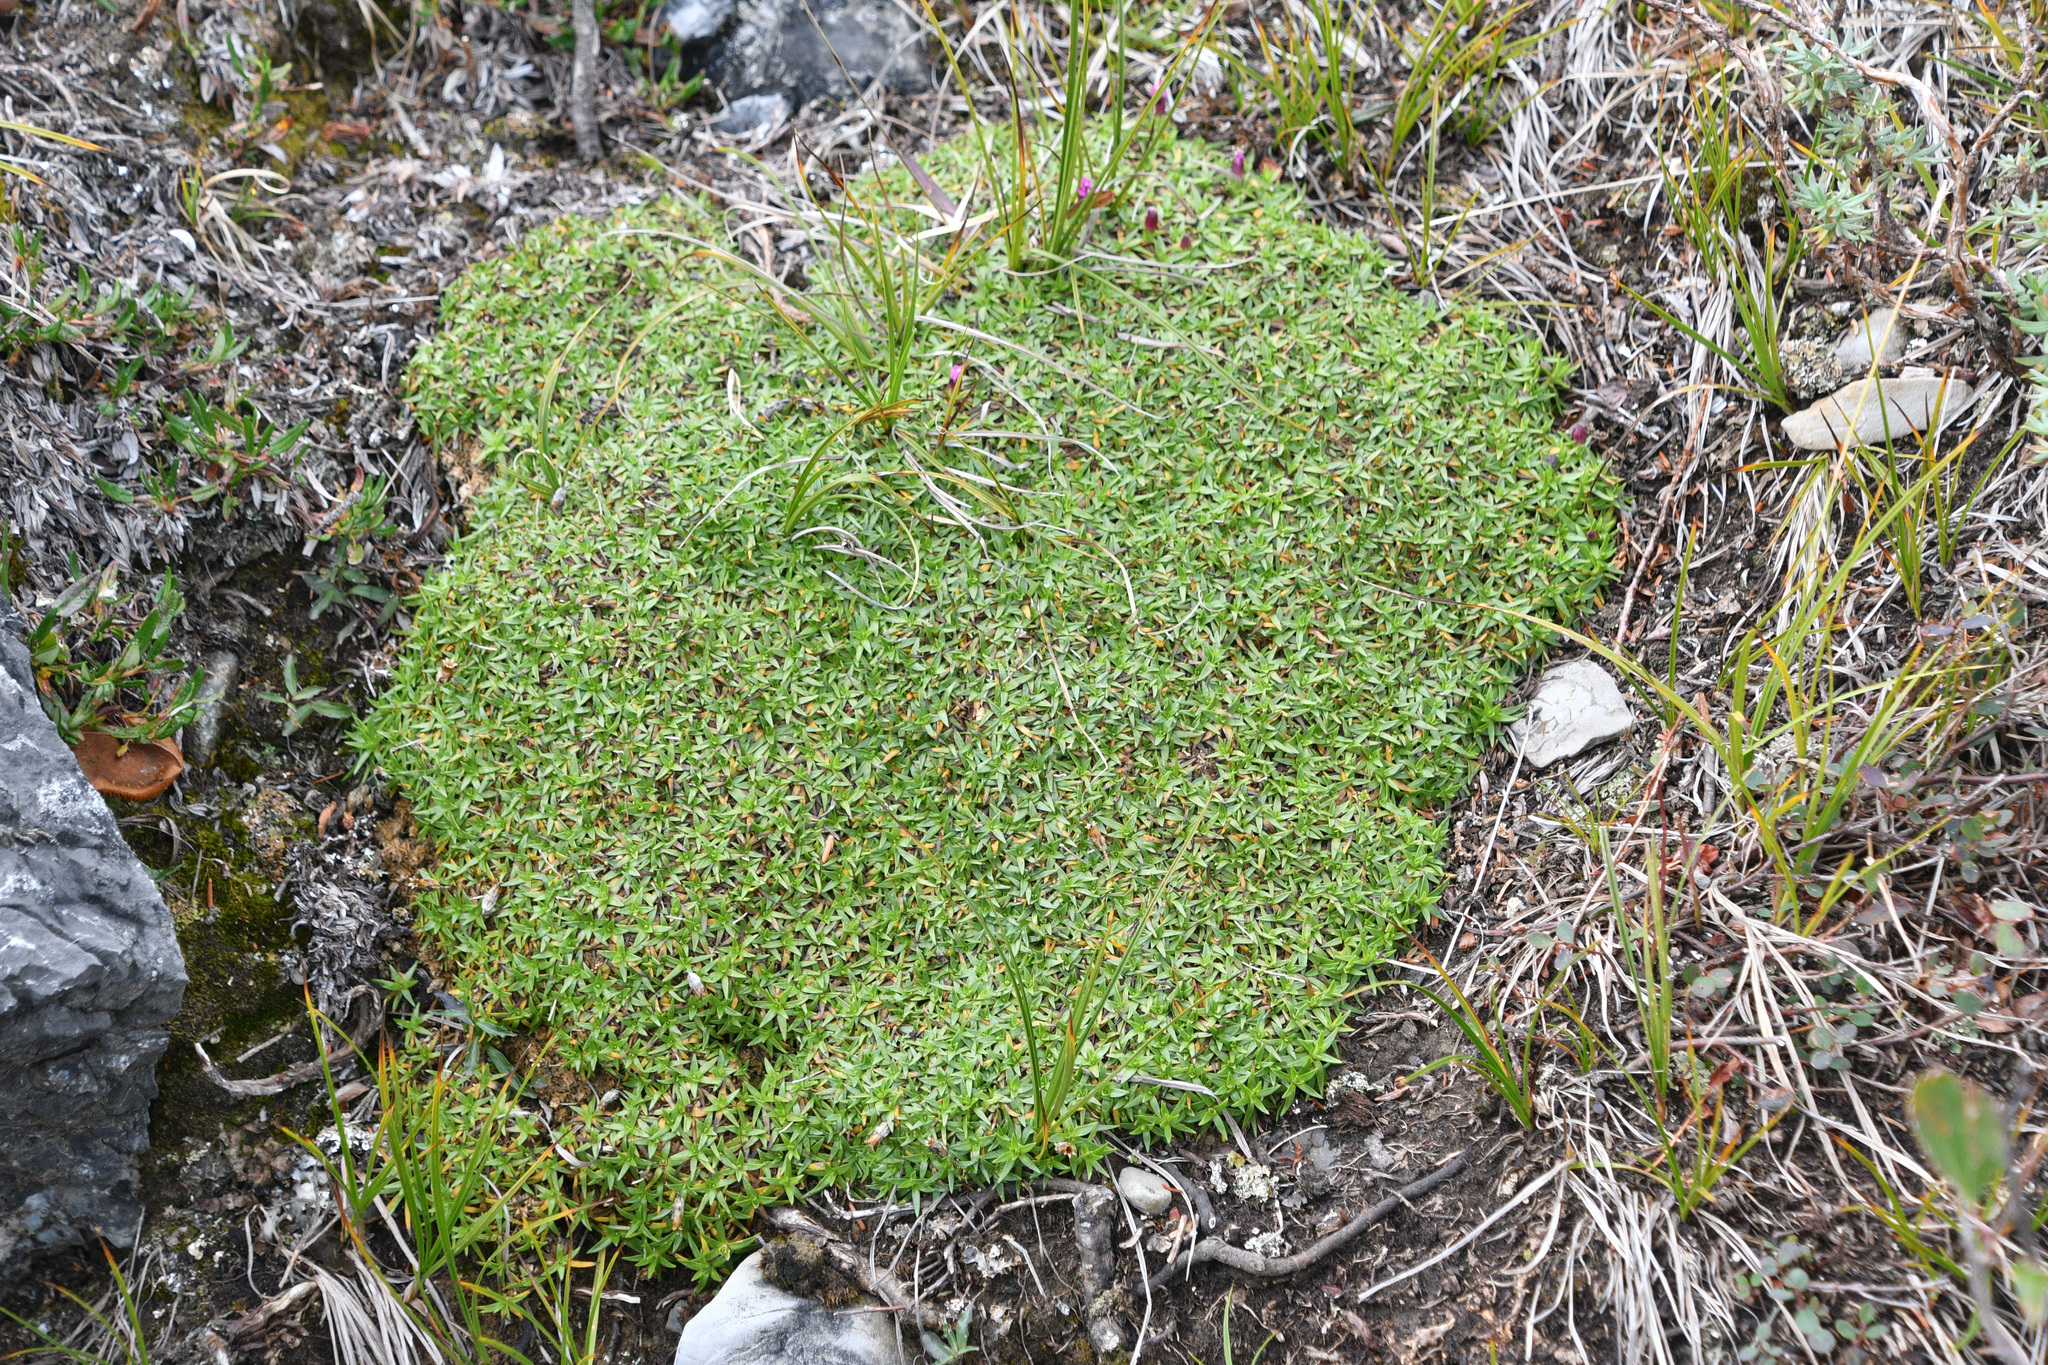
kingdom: Plantae
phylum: Tracheophyta
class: Magnoliopsida
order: Caryophyllales
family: Caryophyllaceae
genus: Silene
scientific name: Silene acaulis
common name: Moss campion
